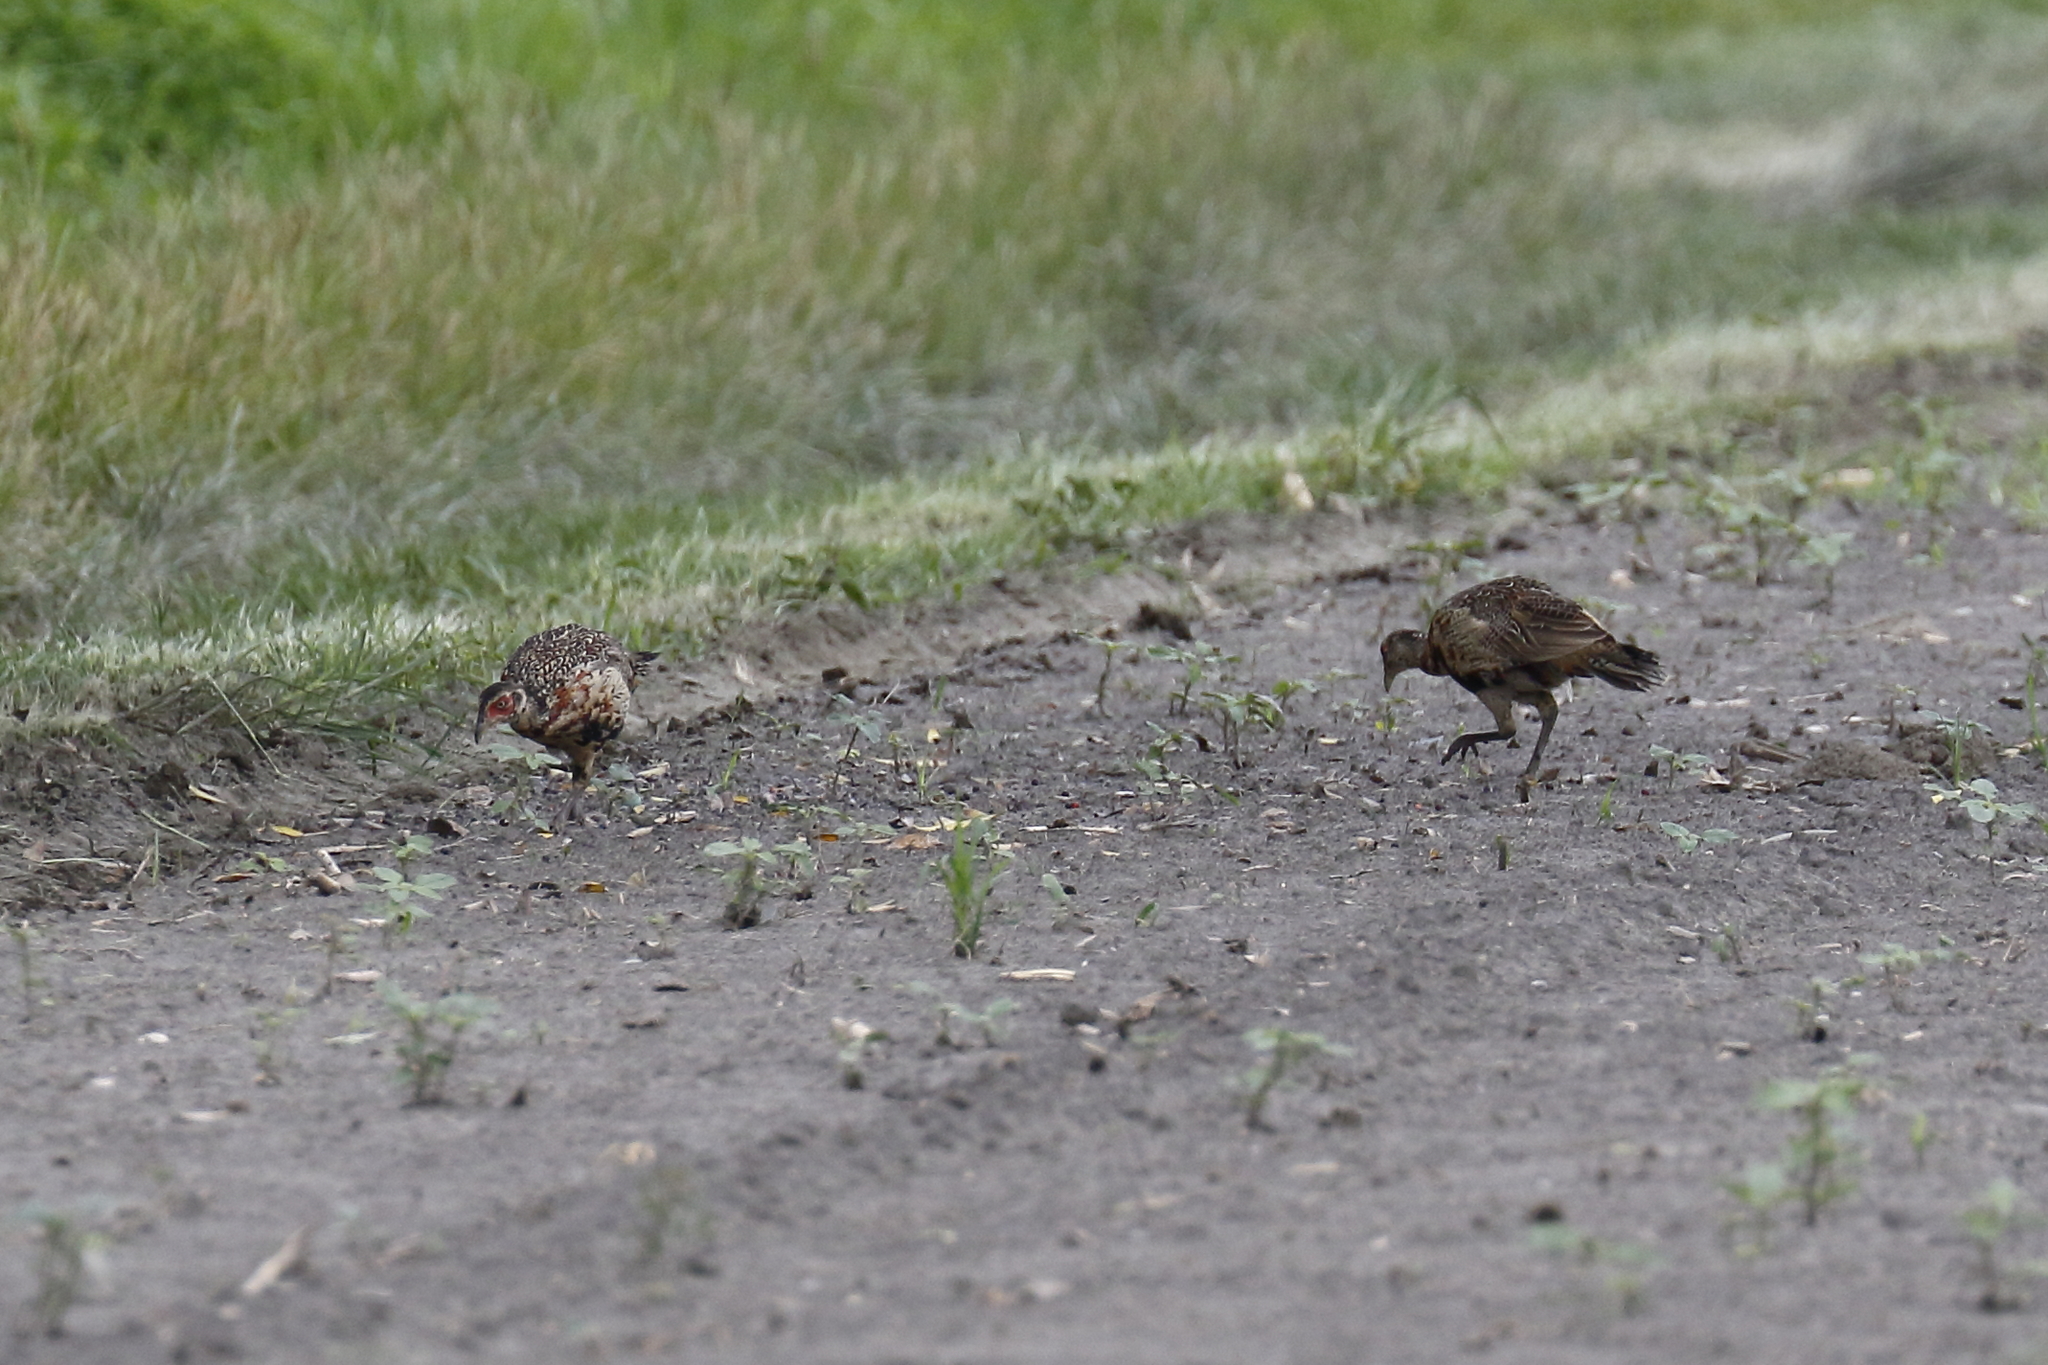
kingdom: Animalia
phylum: Chordata
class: Aves
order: Galliformes
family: Phasianidae
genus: Phasianus
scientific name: Phasianus colchicus
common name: Common pheasant
